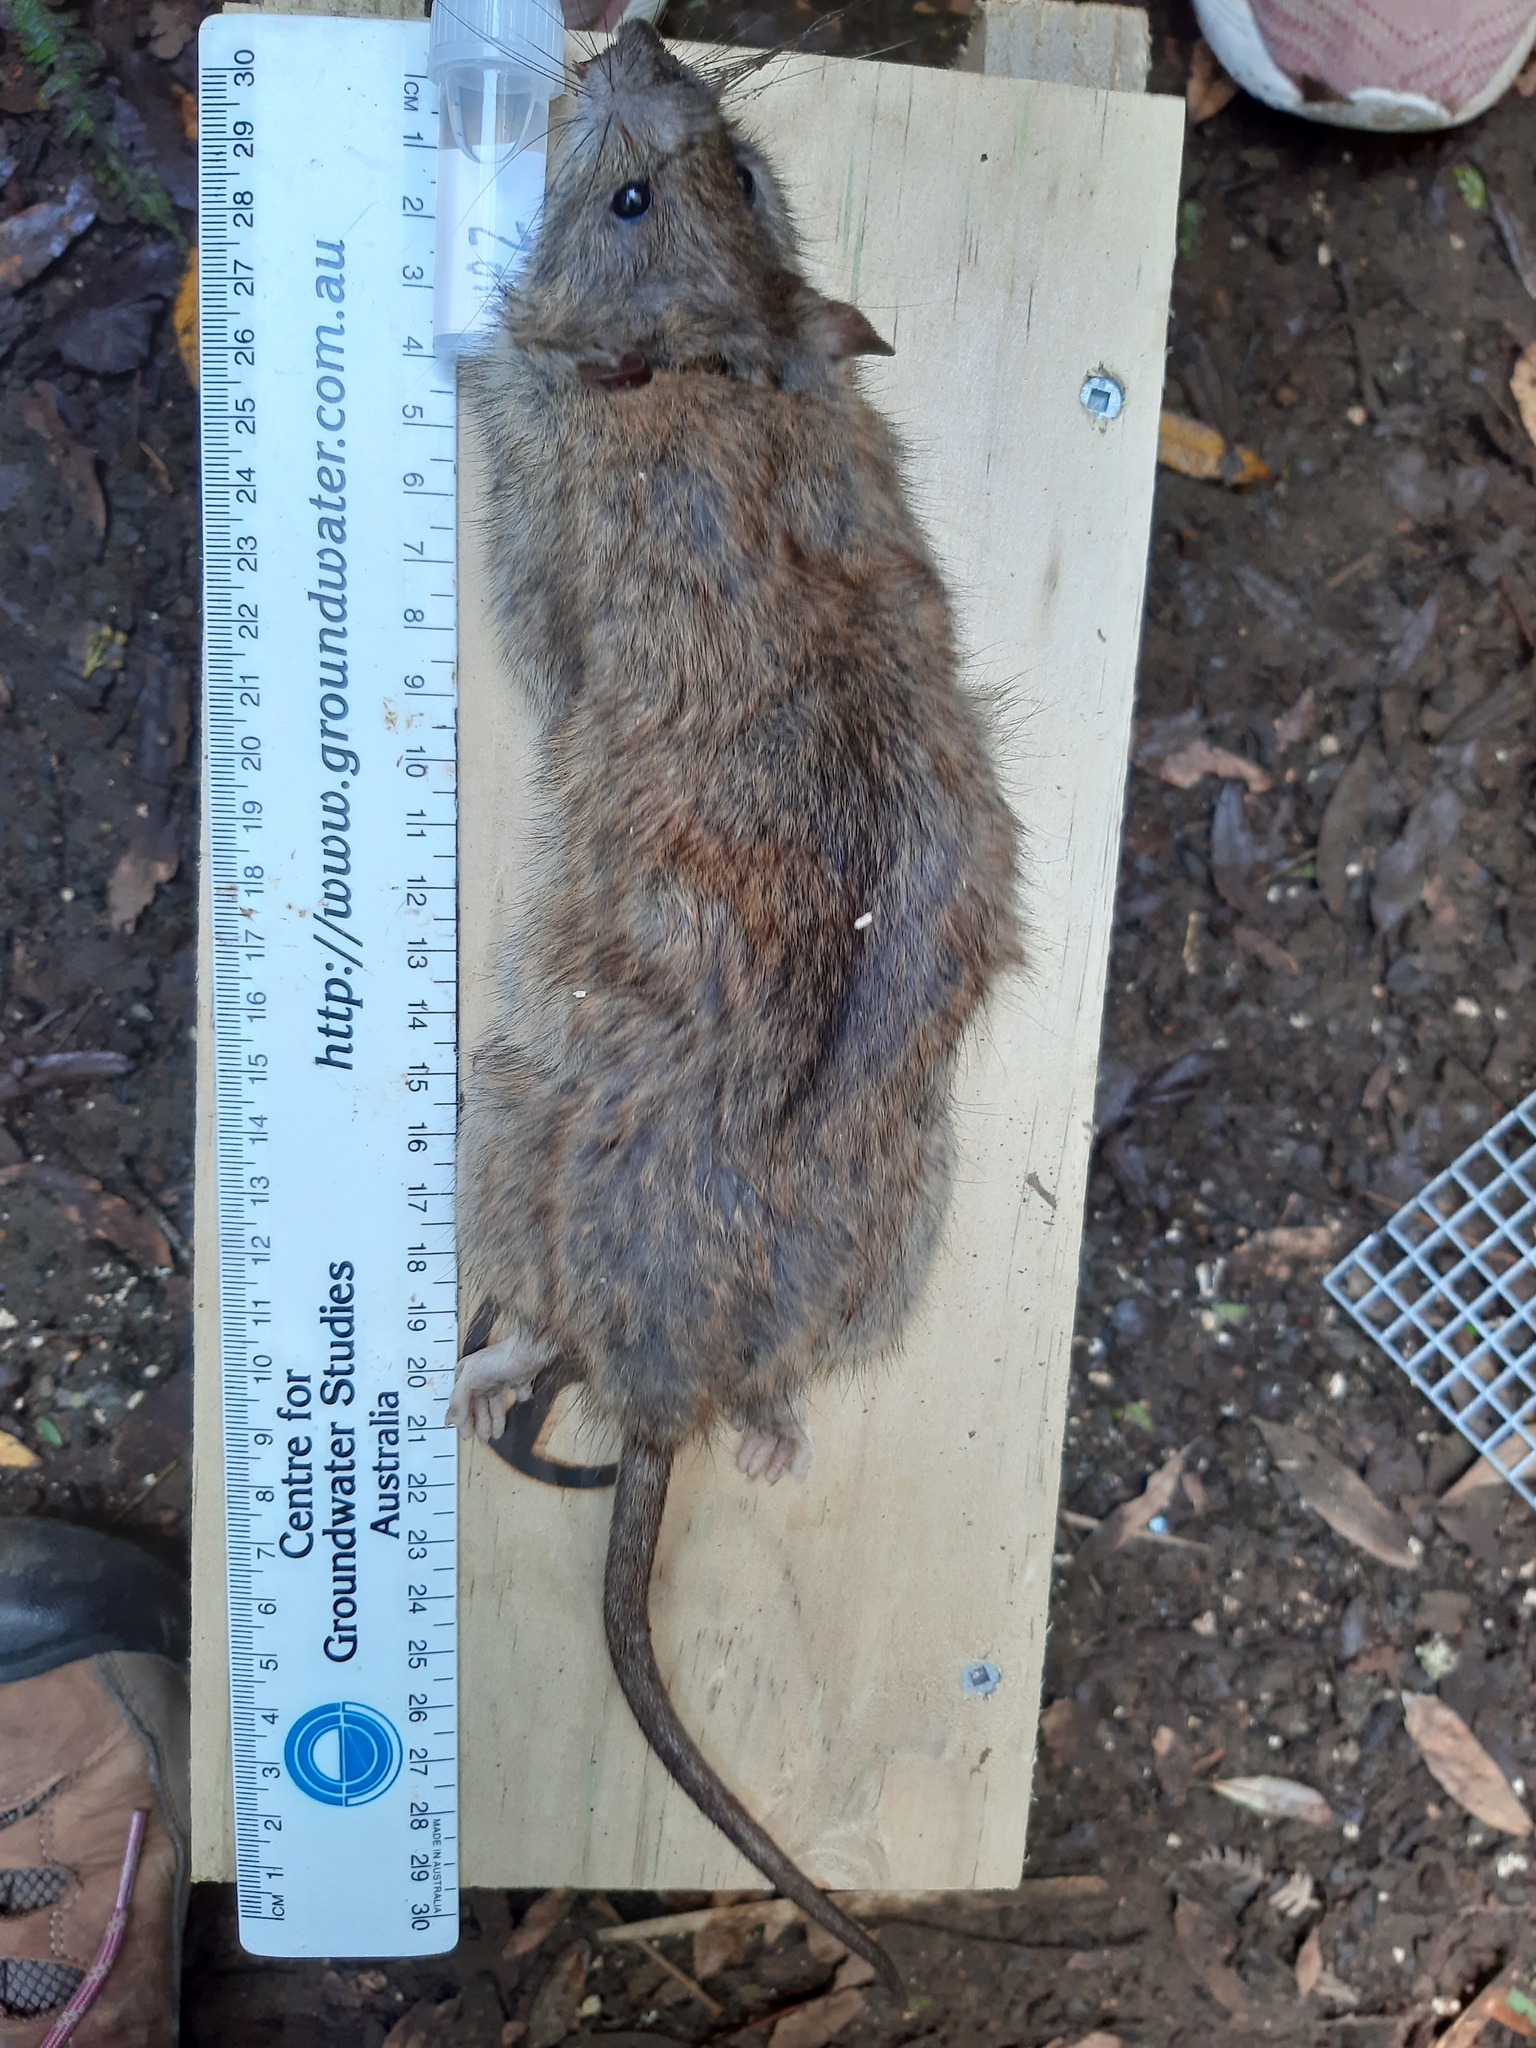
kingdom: Animalia
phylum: Chordata
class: Mammalia
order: Rodentia
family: Muridae
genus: Rattus
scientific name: Rattus norvegicus
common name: Brown rat
